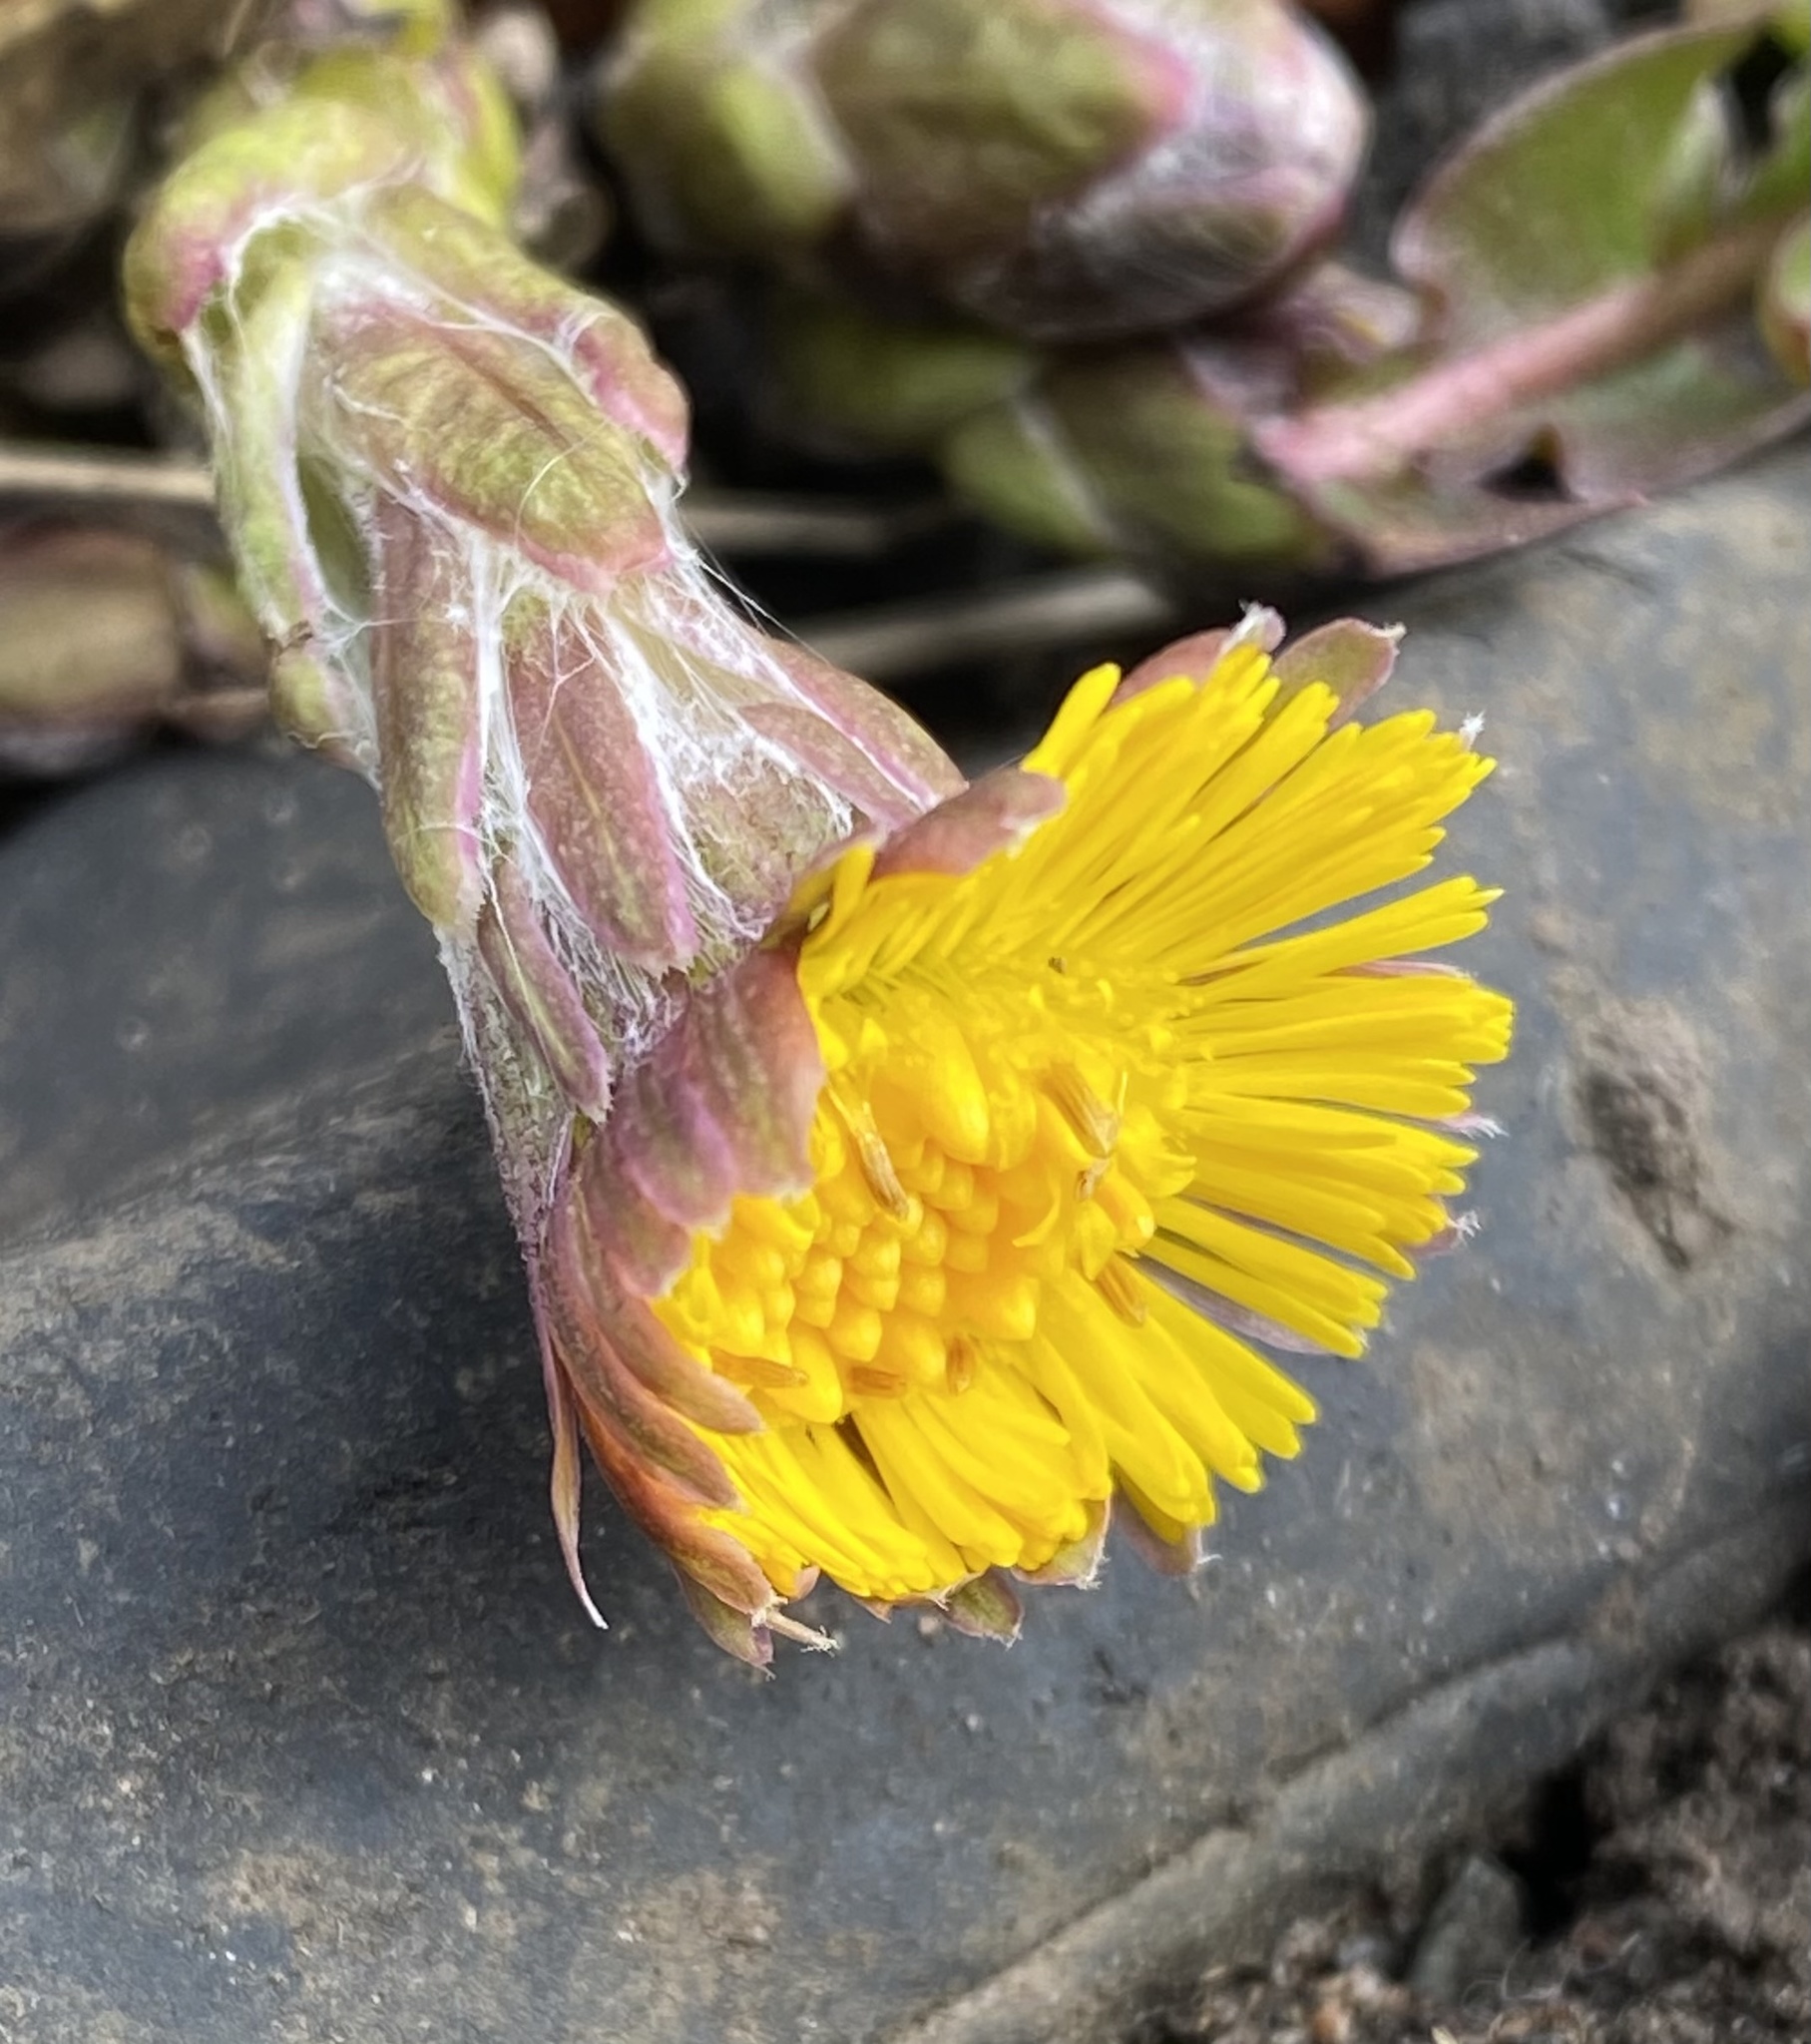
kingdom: Plantae
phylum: Tracheophyta
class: Magnoliopsida
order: Asterales
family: Asteraceae
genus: Tussilago
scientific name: Tussilago farfara
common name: Coltsfoot
